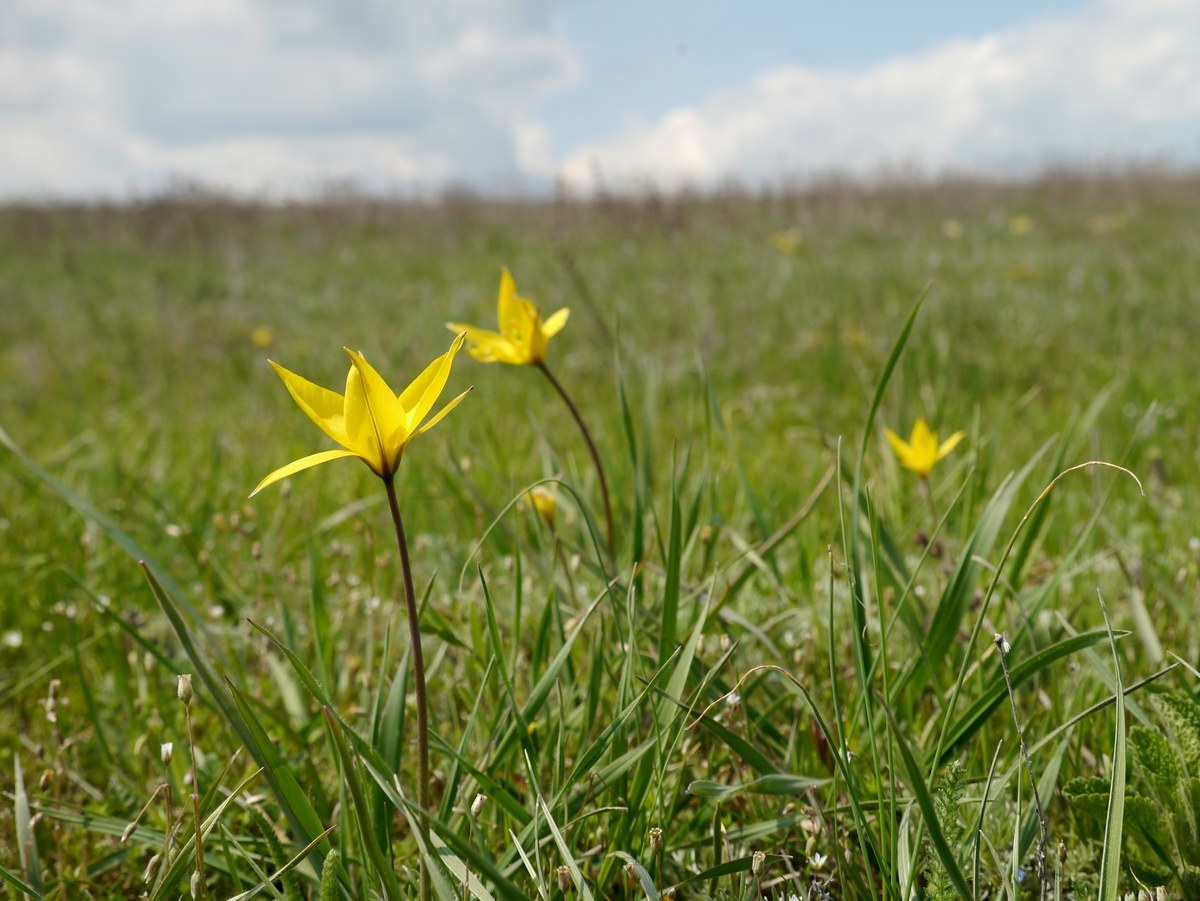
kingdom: Plantae
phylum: Tracheophyta
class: Liliopsida
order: Liliales
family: Liliaceae
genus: Tulipa
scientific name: Tulipa sylvestris
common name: Wild tulip
